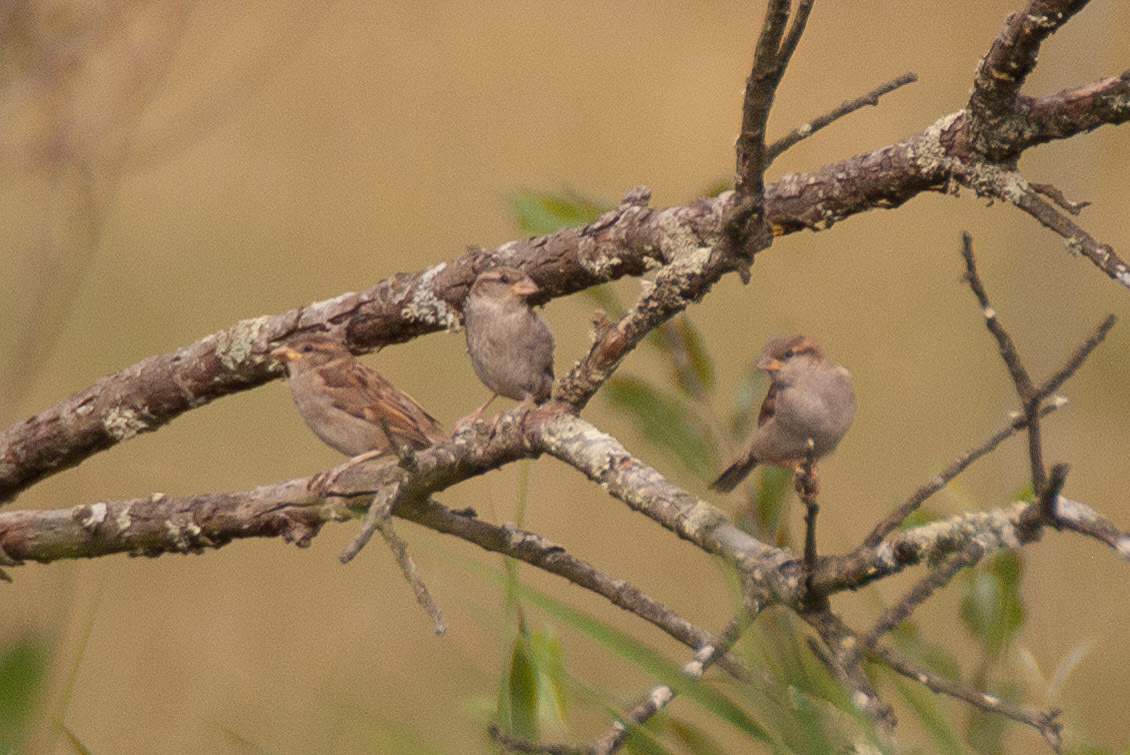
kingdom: Animalia
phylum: Chordata
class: Aves
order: Passeriformes
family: Passeridae
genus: Passer
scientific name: Passer domesticus
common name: House sparrow
